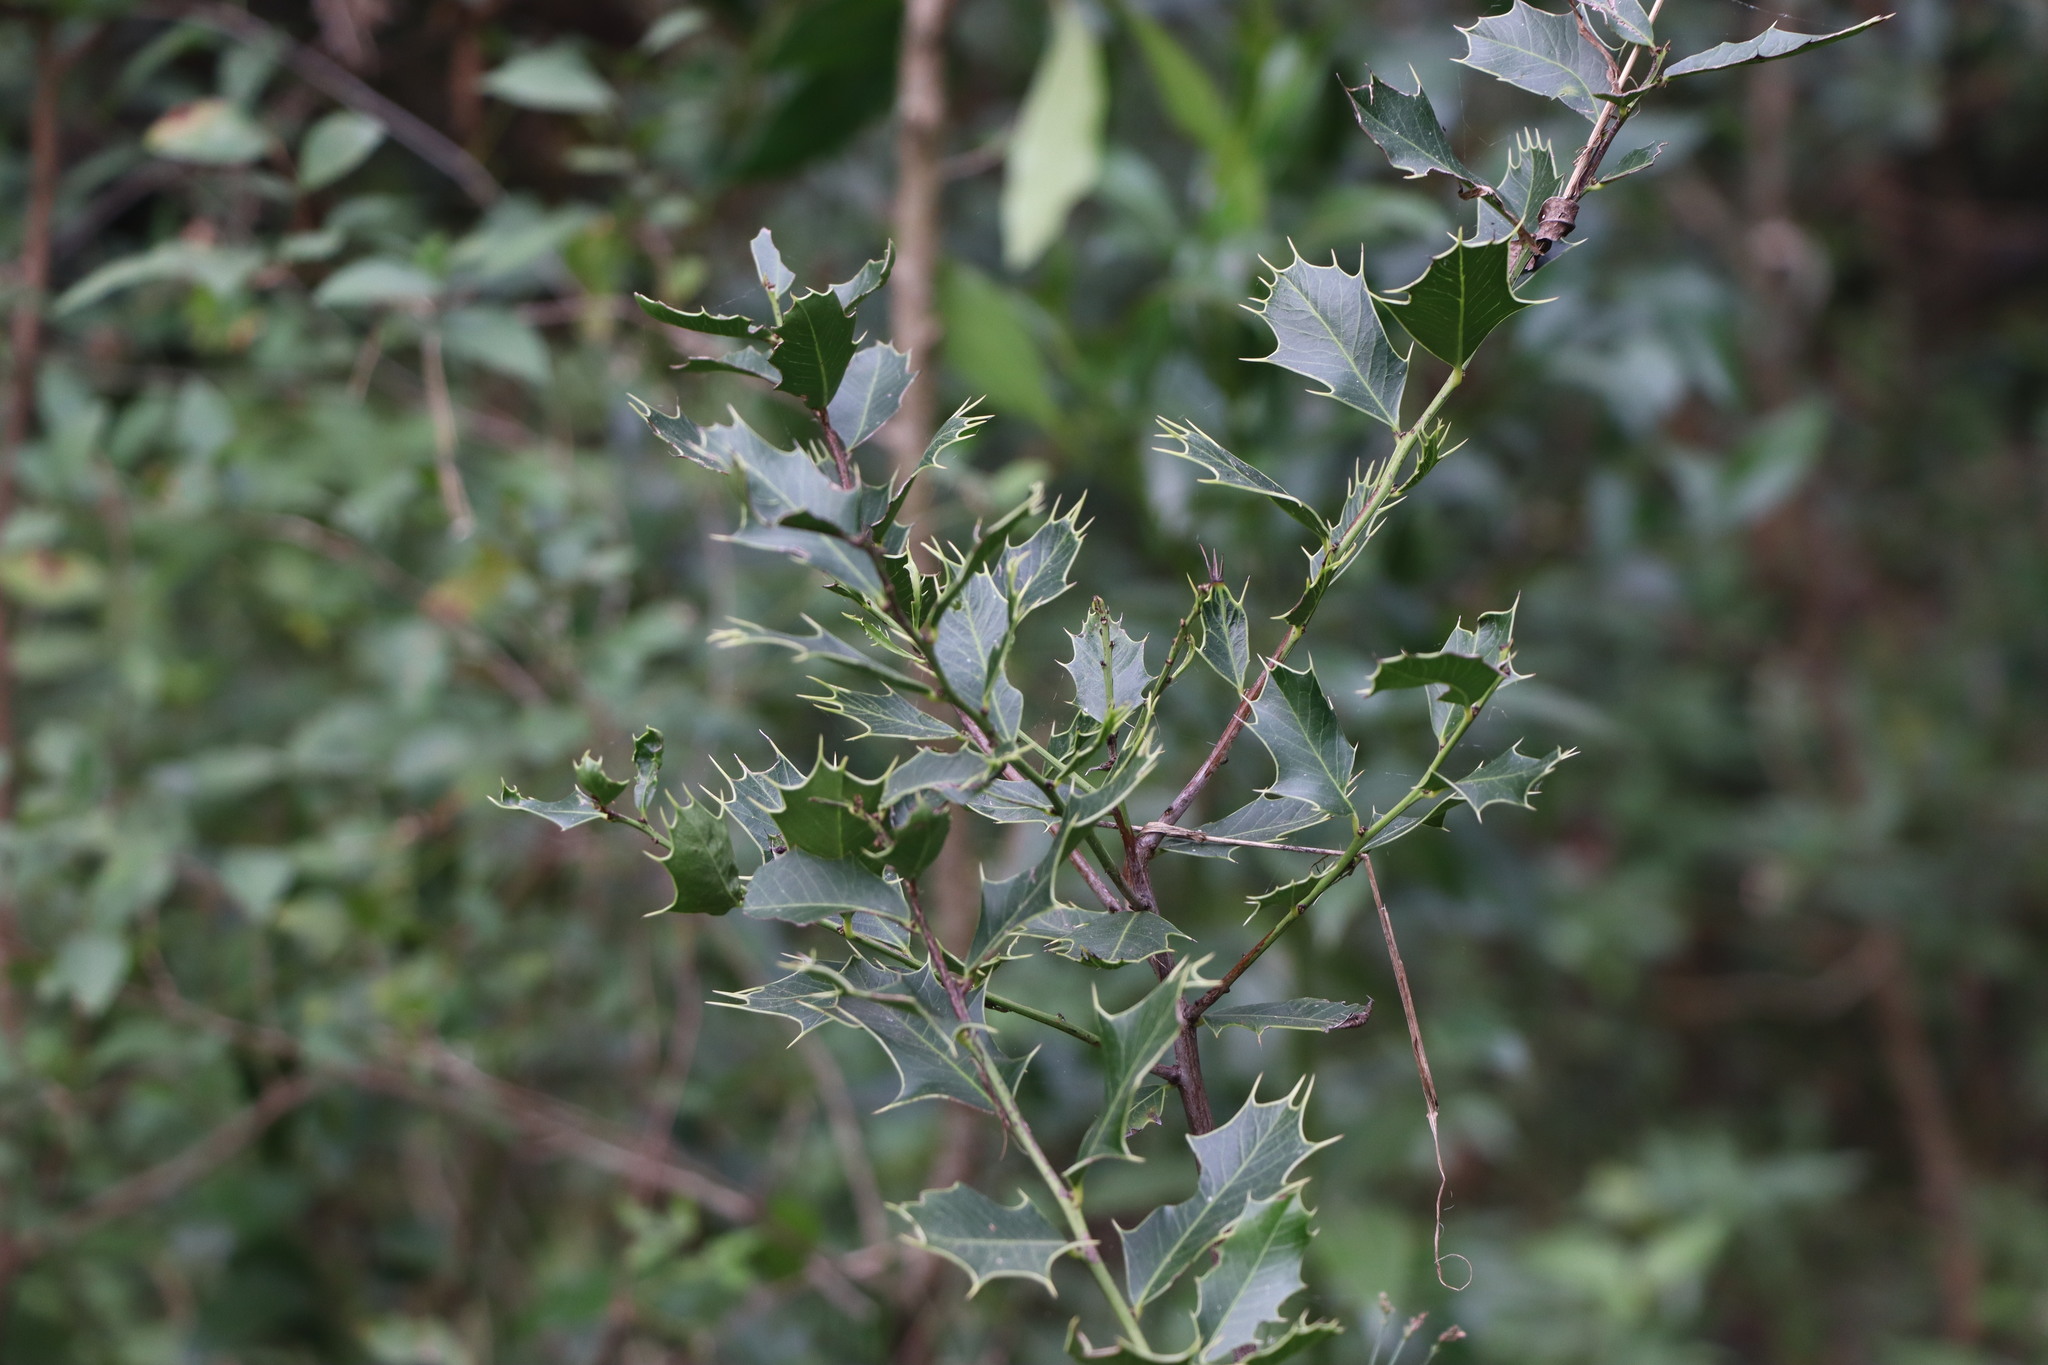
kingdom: Plantae
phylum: Tracheophyta
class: Magnoliopsida
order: Celastrales
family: Celastraceae
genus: Monteverdia
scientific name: Monteverdia
